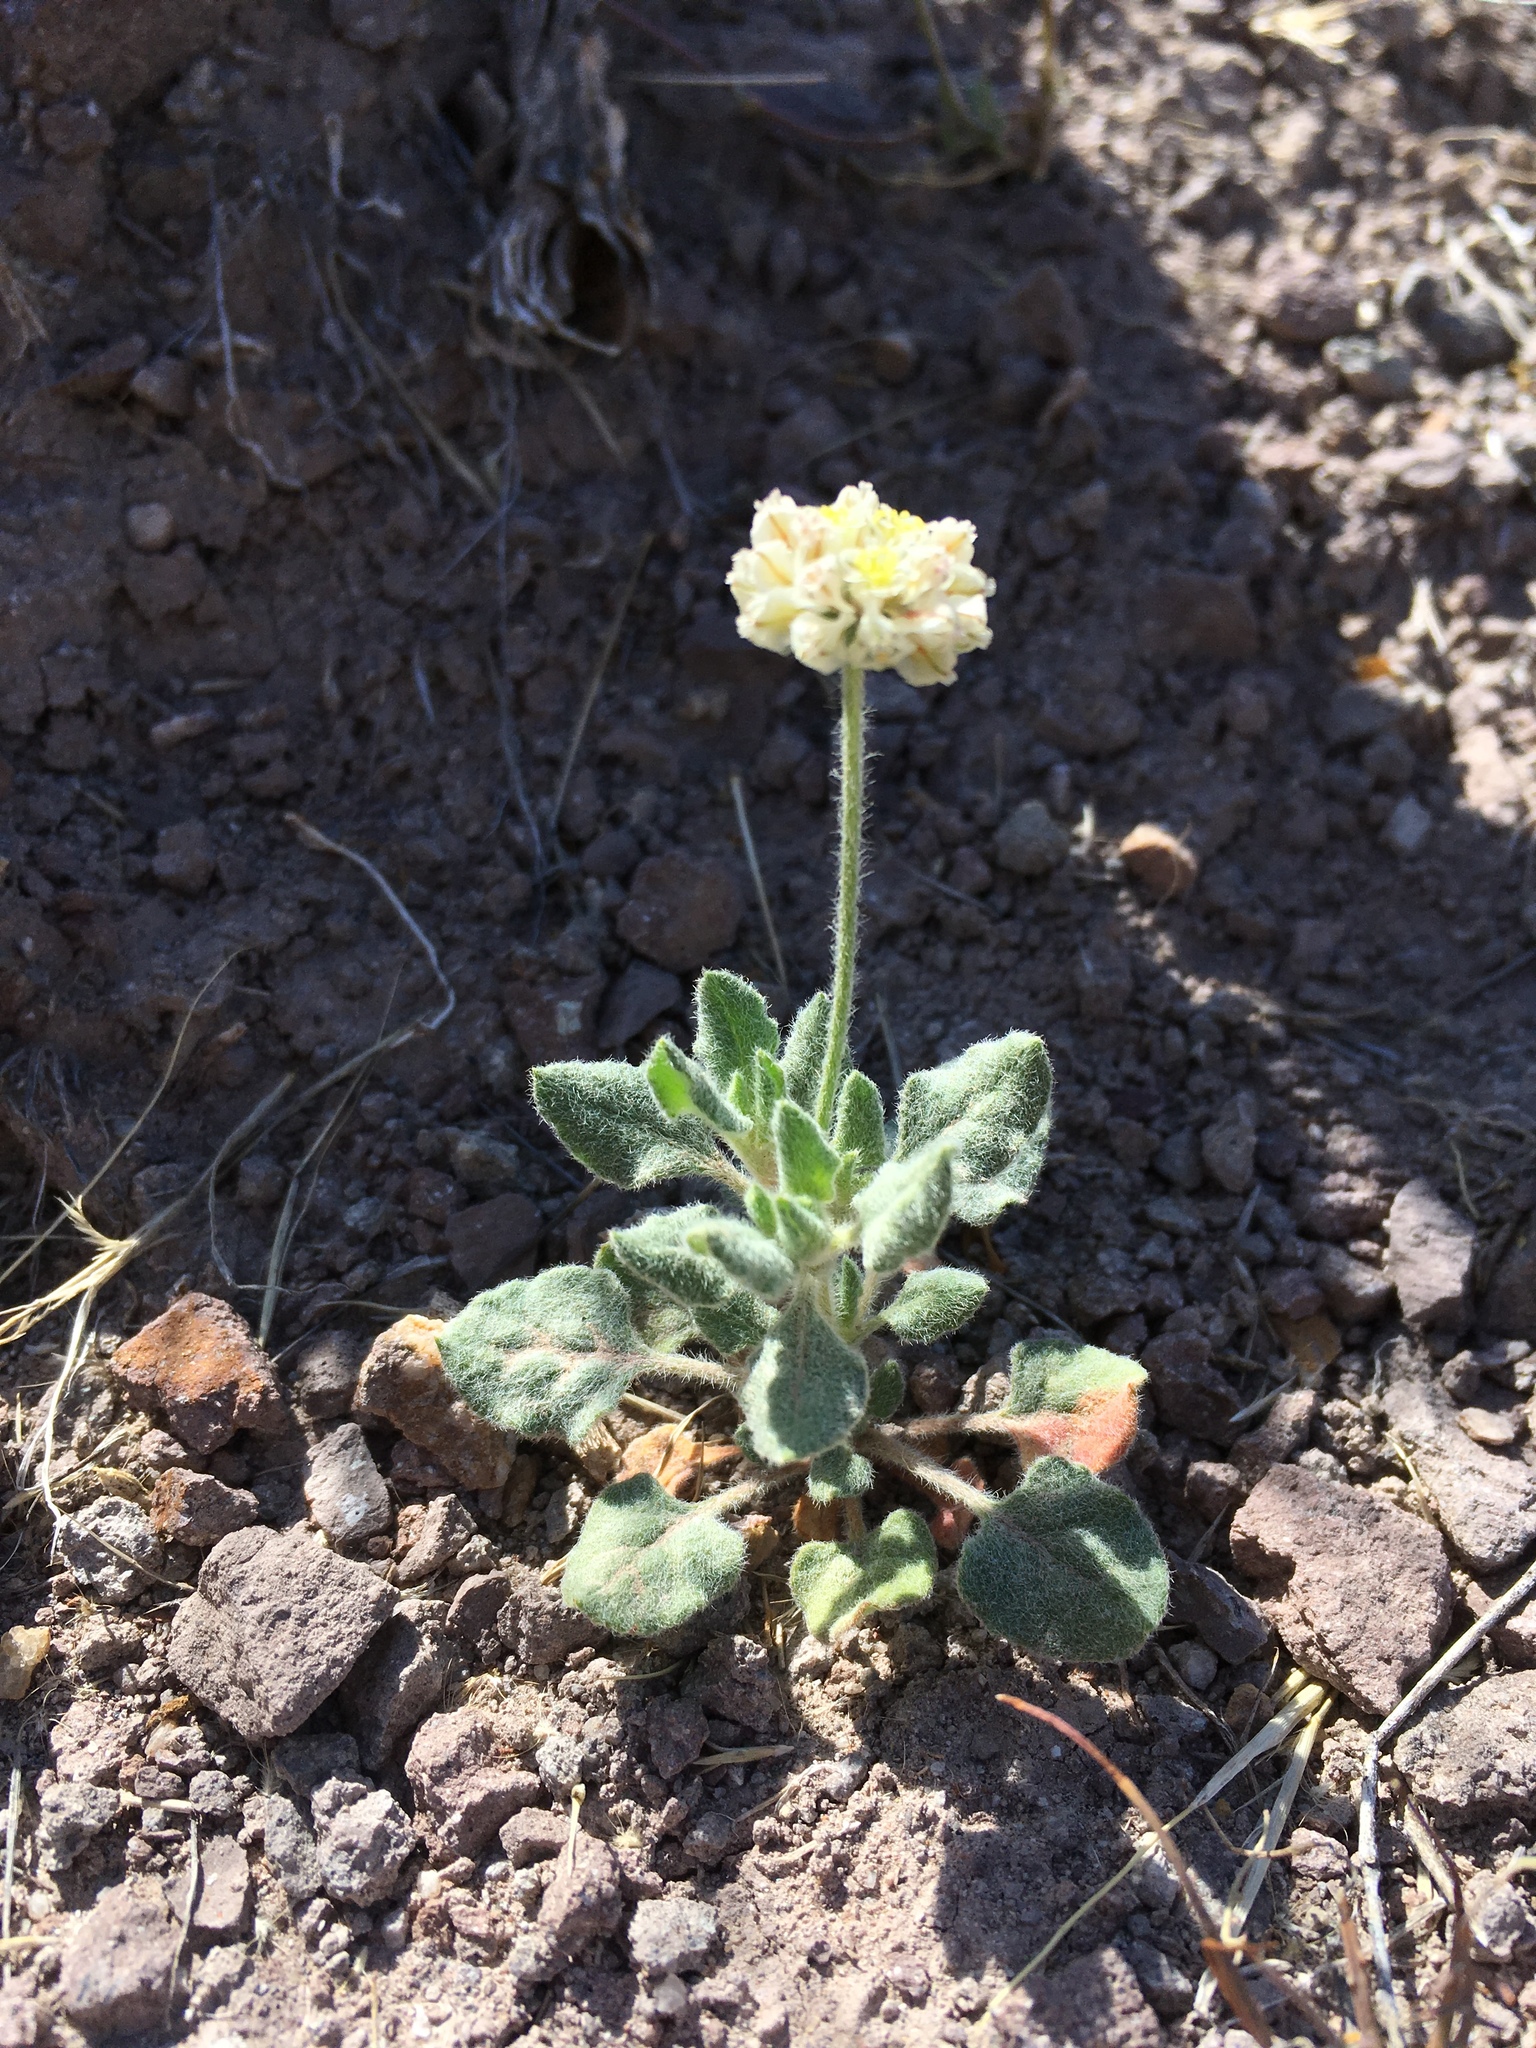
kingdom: Plantae
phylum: Tracheophyta
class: Magnoliopsida
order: Caryophyllales
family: Polygonaceae
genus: Eriogonum
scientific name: Eriogonum abertianum
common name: Abert's wild buckwheat
